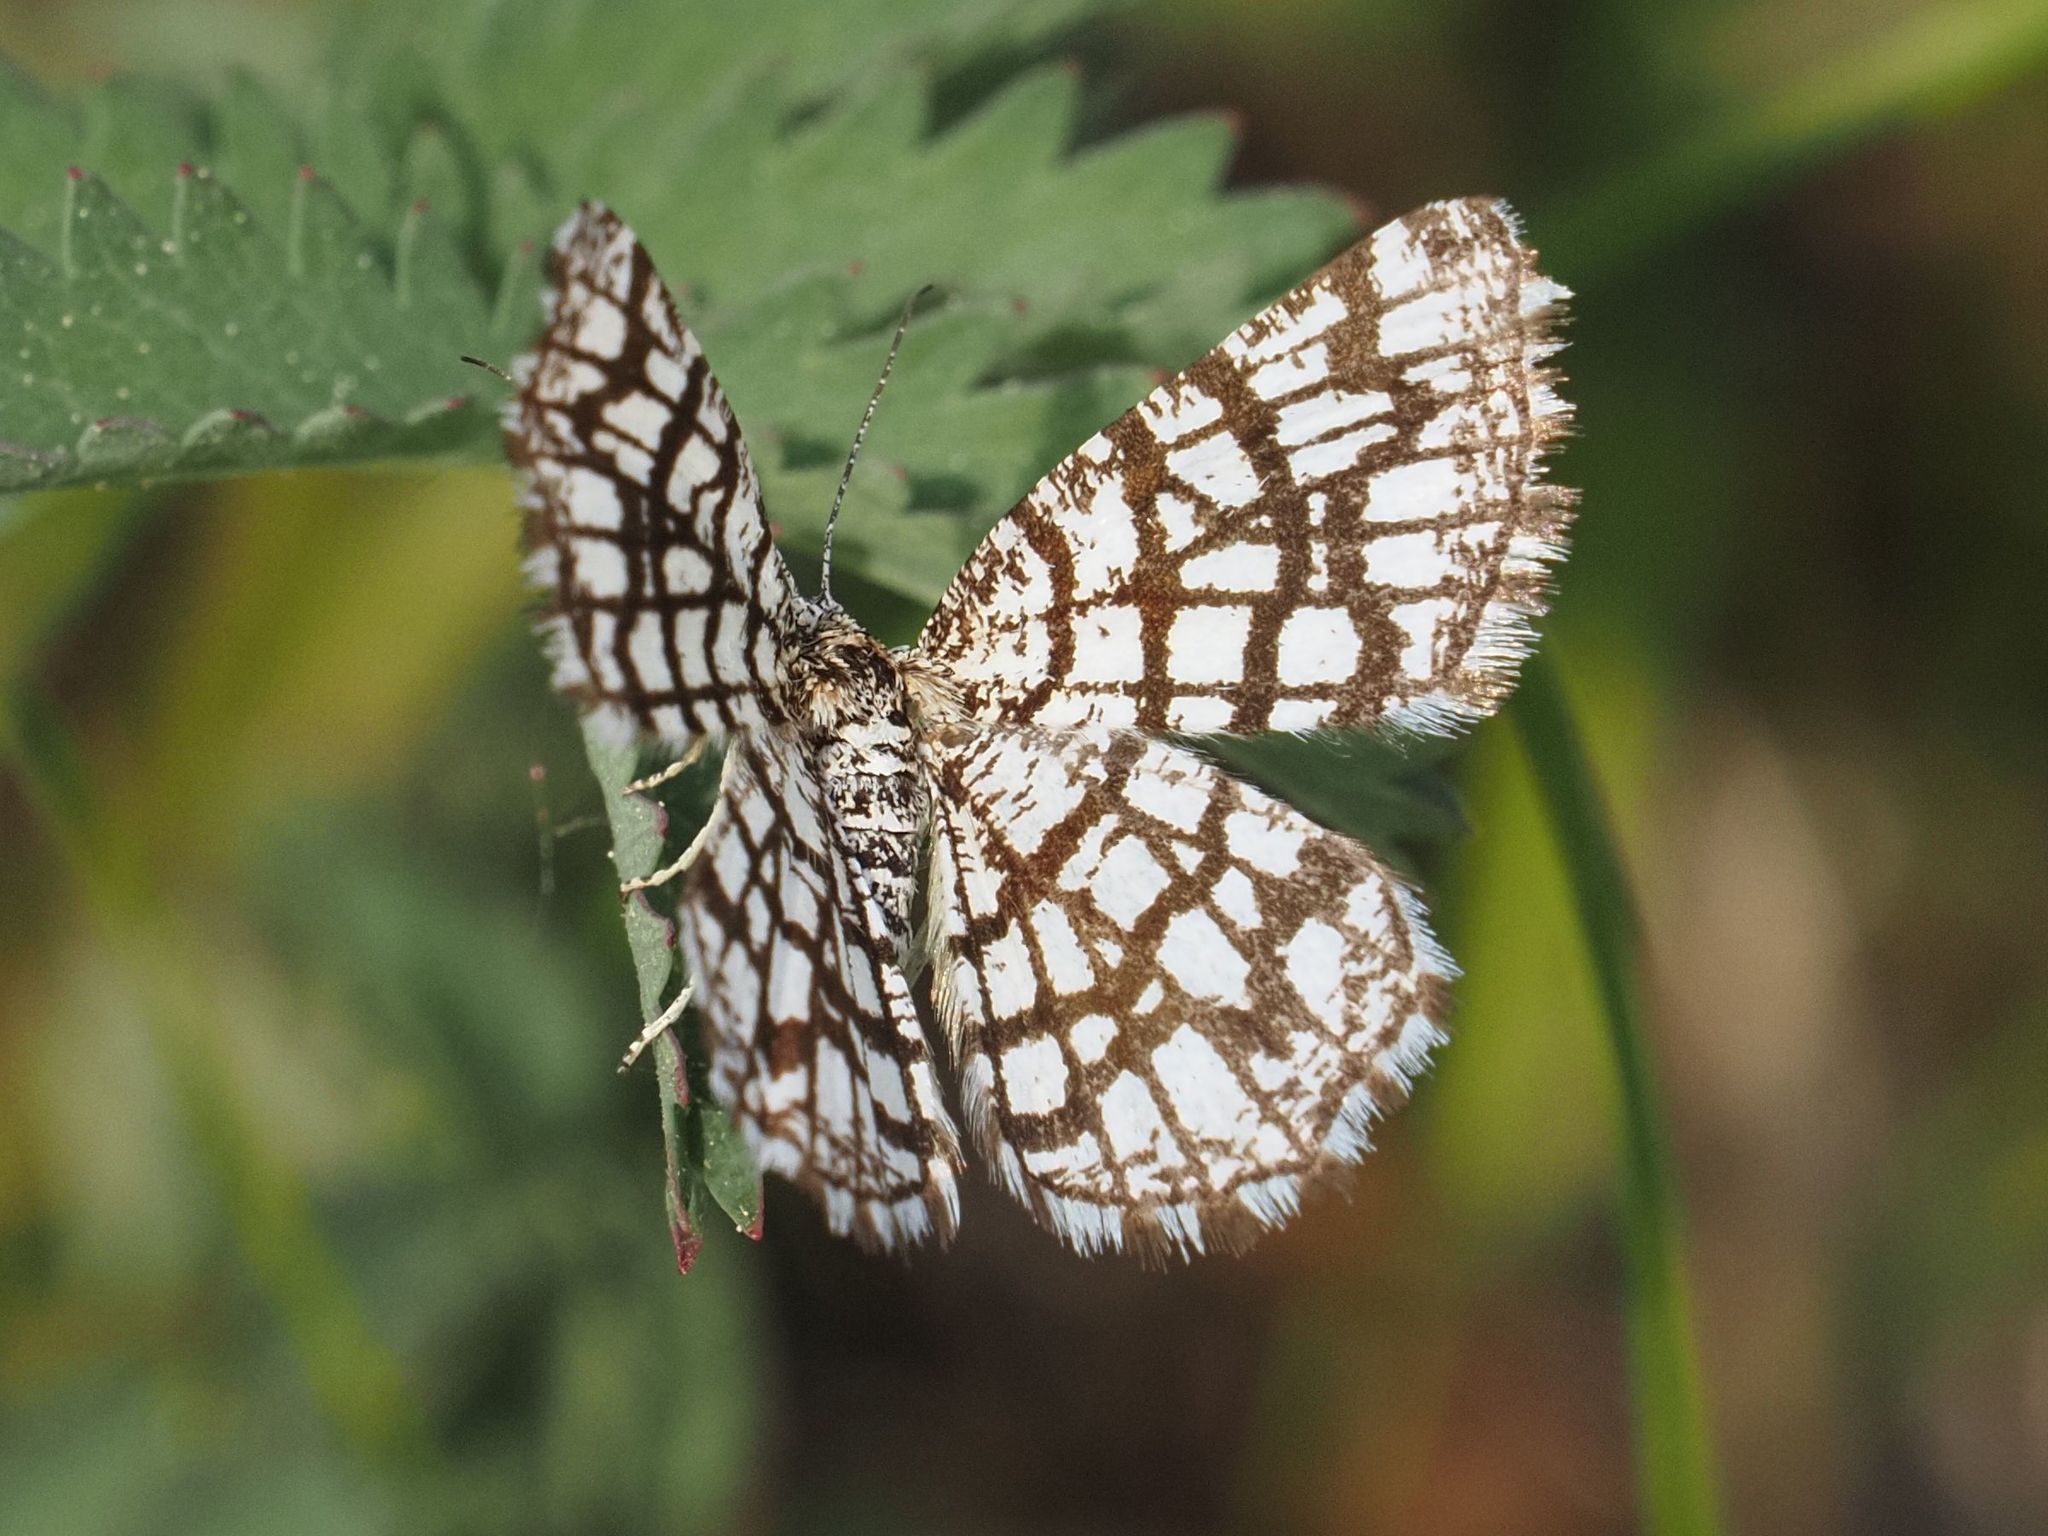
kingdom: Animalia
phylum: Arthropoda
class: Insecta
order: Lepidoptera
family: Geometridae
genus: Chiasmia
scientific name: Chiasmia clathrata
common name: Latticed heath
